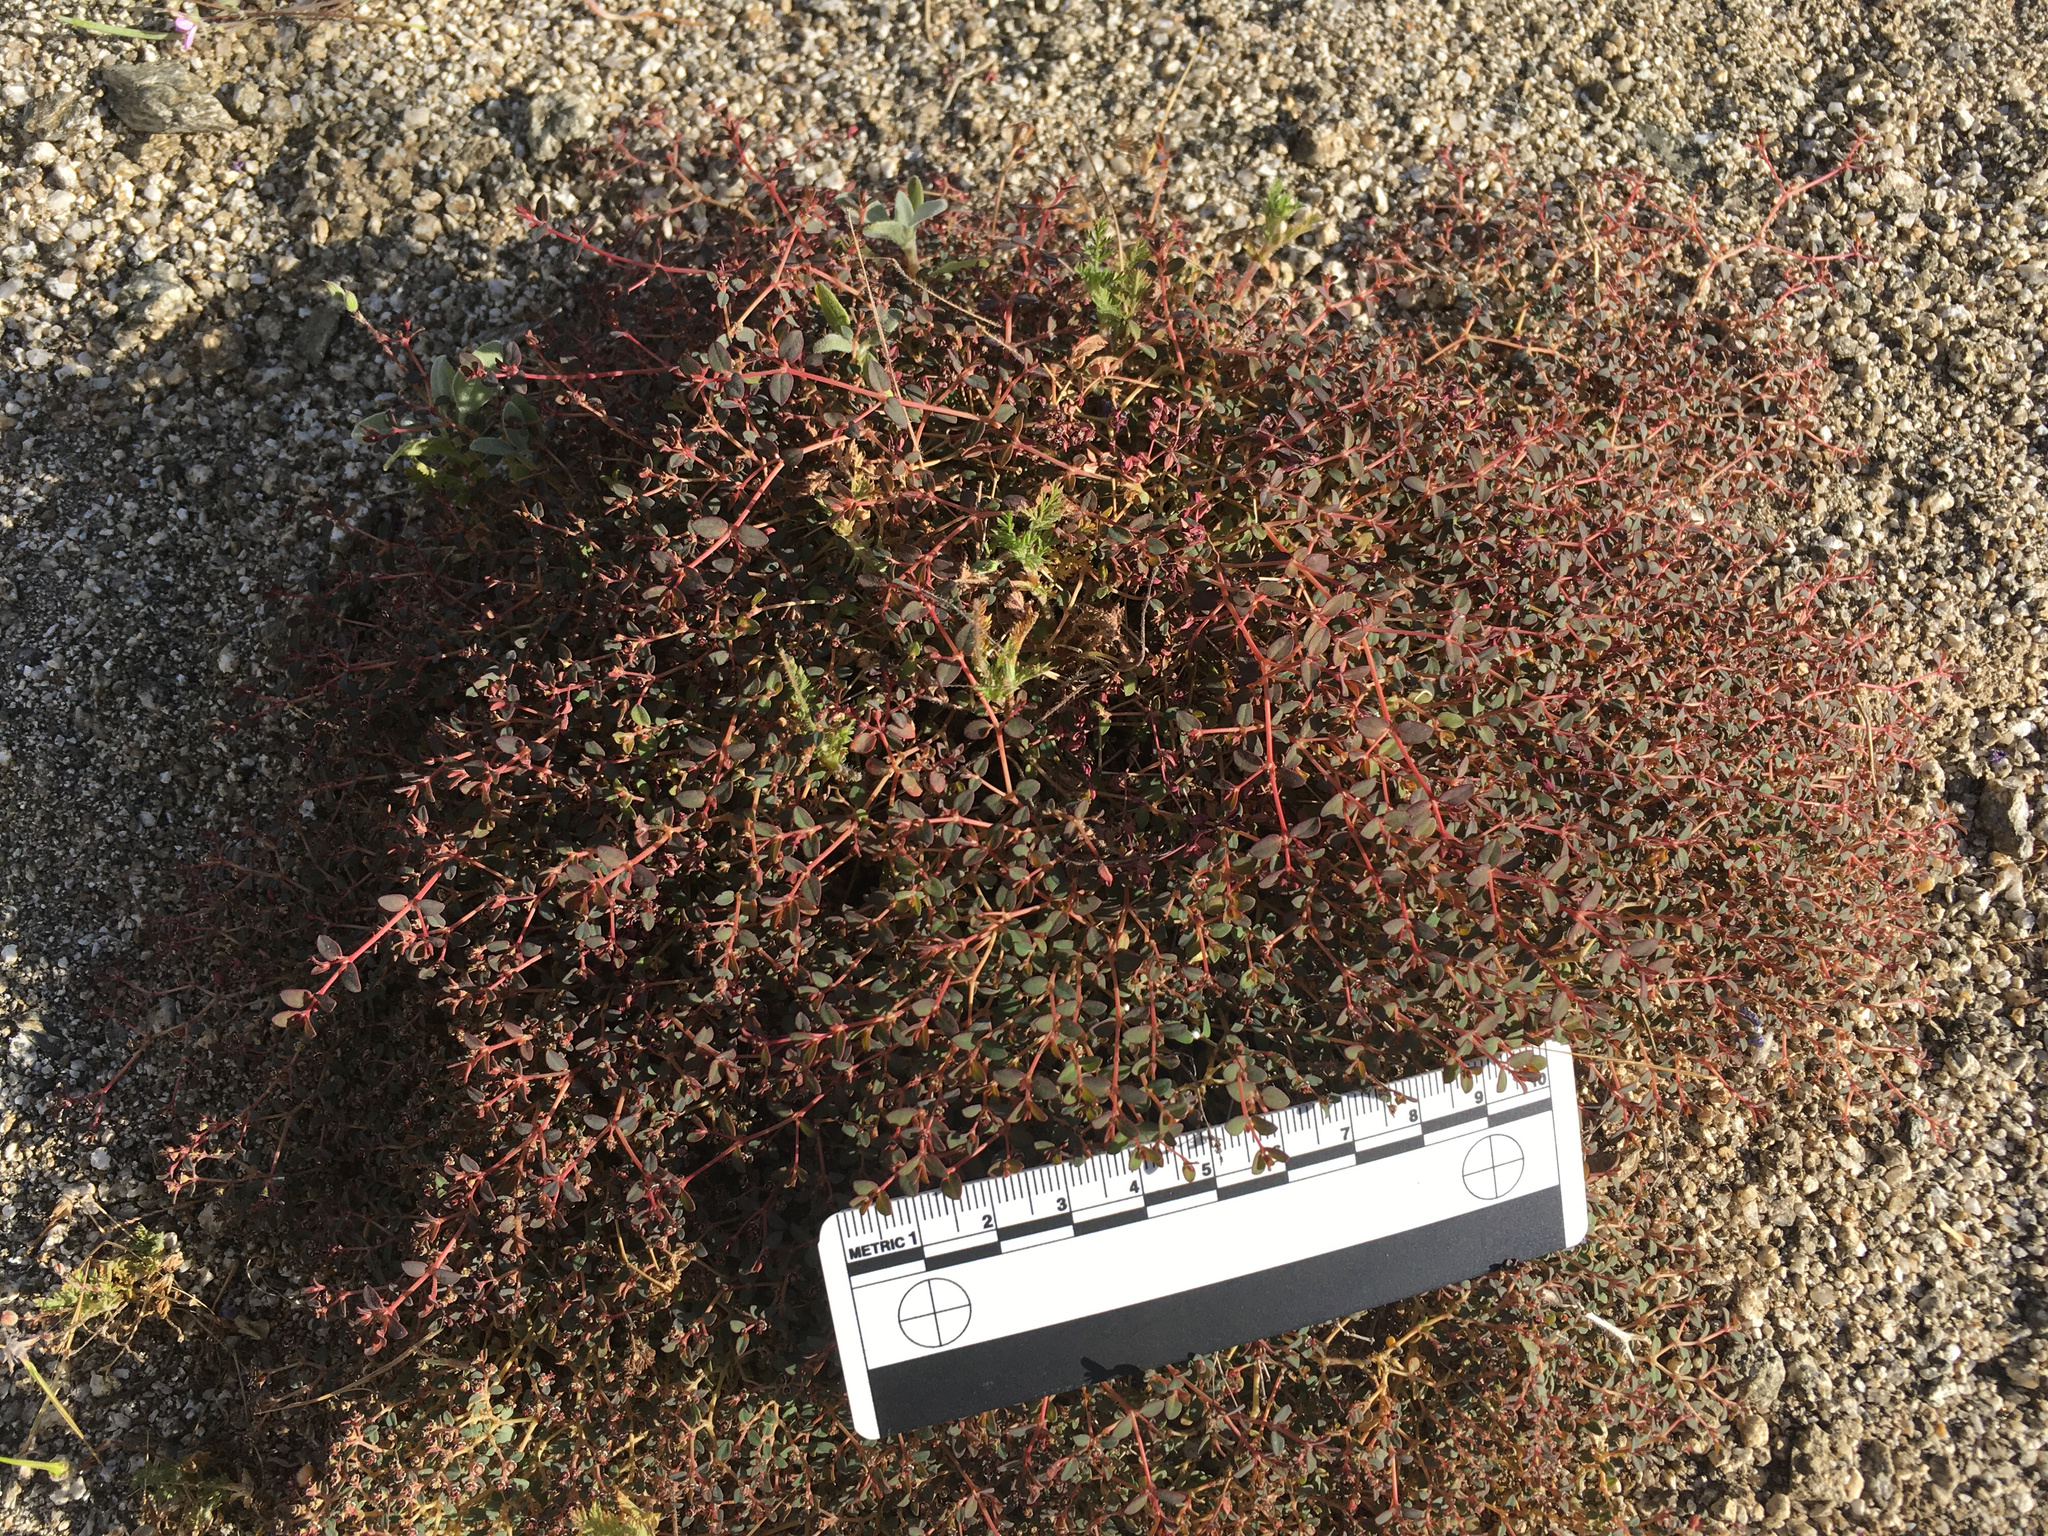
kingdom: Plantae
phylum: Tracheophyta
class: Magnoliopsida
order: Malpighiales
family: Euphorbiaceae
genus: Euphorbia
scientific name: Euphorbia polycarpa
